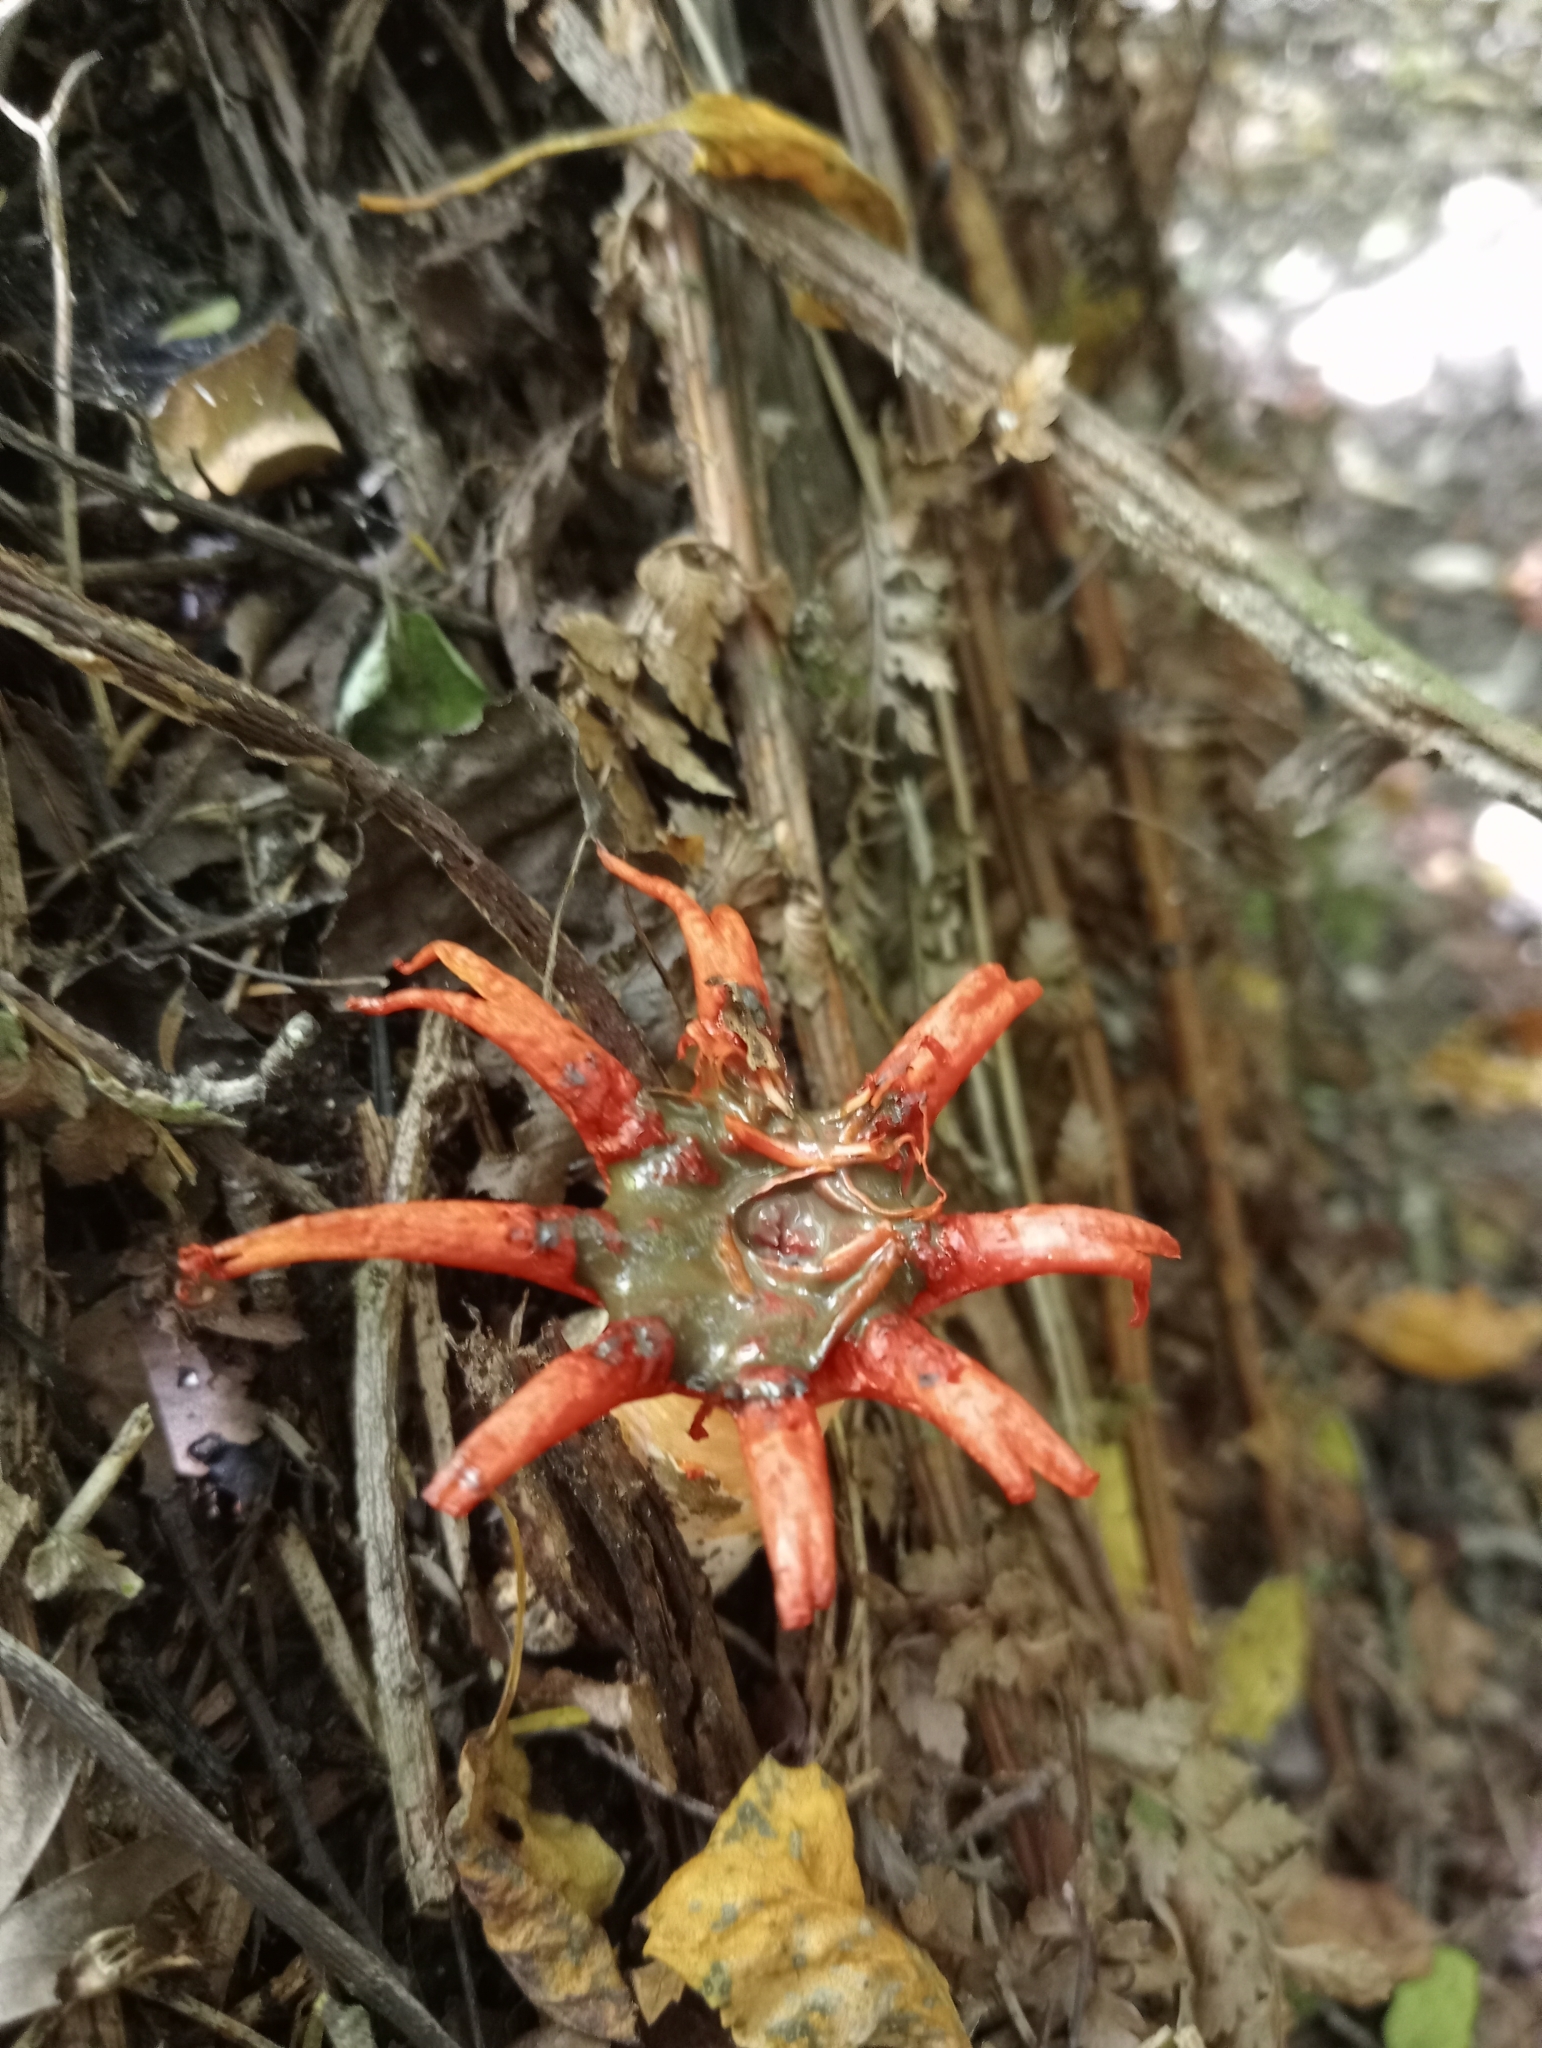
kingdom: Fungi
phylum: Basidiomycota
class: Agaricomycetes
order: Phallales
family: Phallaceae
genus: Aseroe
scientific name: Aseroe rubra
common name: Starfish fungus
